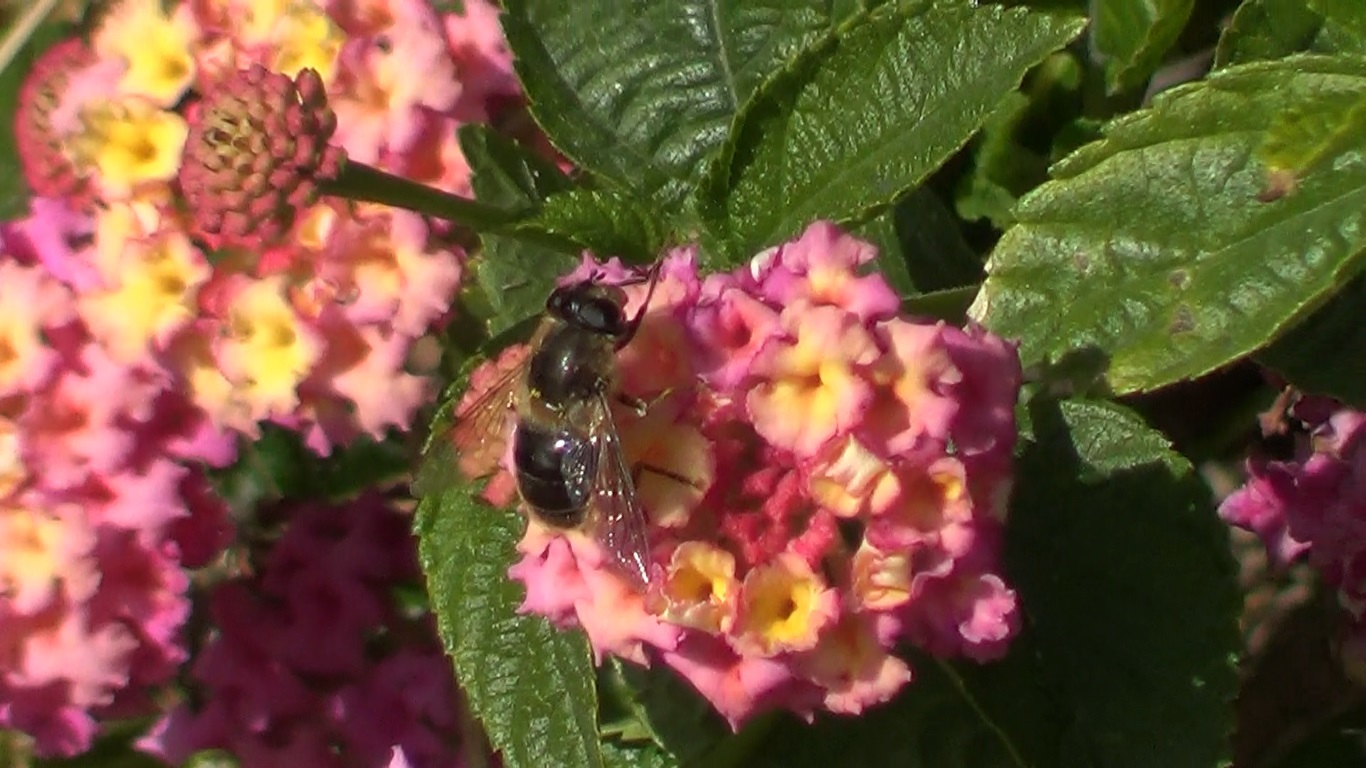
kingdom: Animalia
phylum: Arthropoda
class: Insecta
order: Diptera
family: Syrphidae
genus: Eristalis
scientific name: Eristalis tenax
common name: Drone fly
